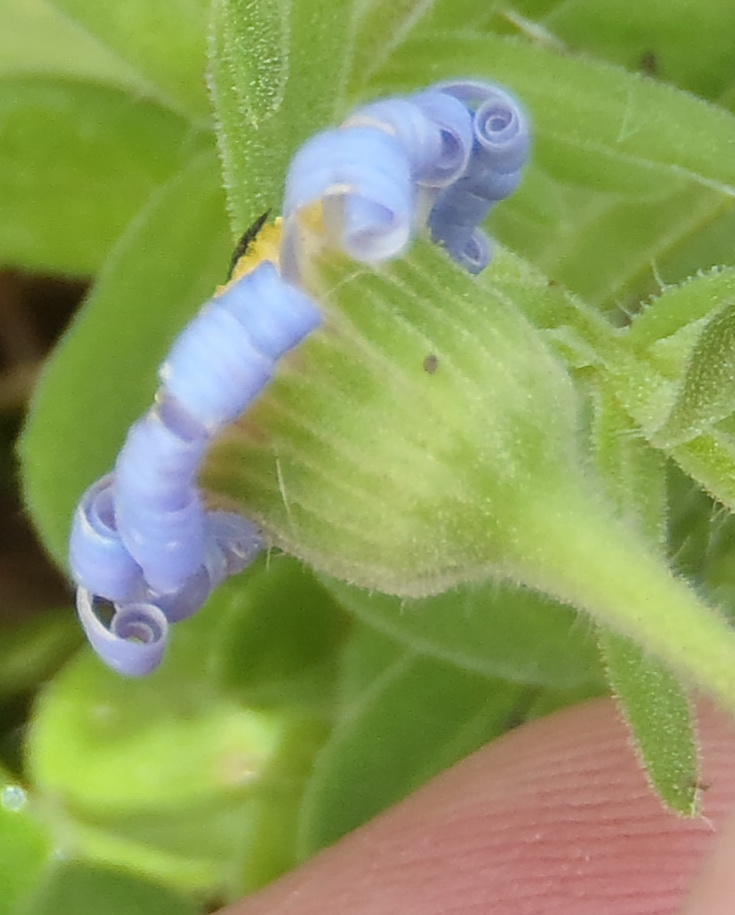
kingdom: Plantae
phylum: Tracheophyta
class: Magnoliopsida
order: Asterales
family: Asteraceae
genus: Felicia
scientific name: Felicia amoena
